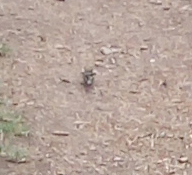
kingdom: Animalia
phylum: Chordata
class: Aves
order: Passeriformes
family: Fringillidae
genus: Fringilla
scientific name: Fringilla coelebs
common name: Common chaffinch
